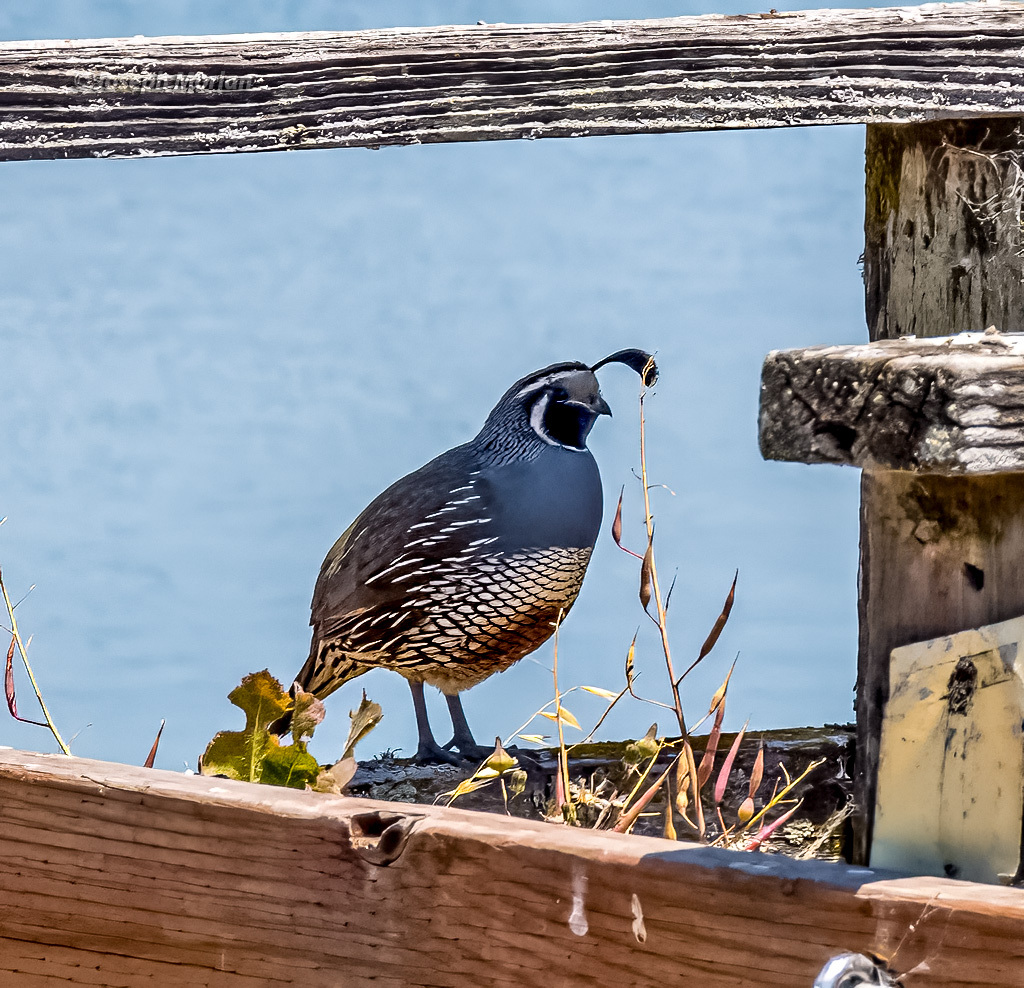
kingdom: Animalia
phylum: Chordata
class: Aves
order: Galliformes
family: Odontophoridae
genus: Callipepla
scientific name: Callipepla californica
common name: California quail
